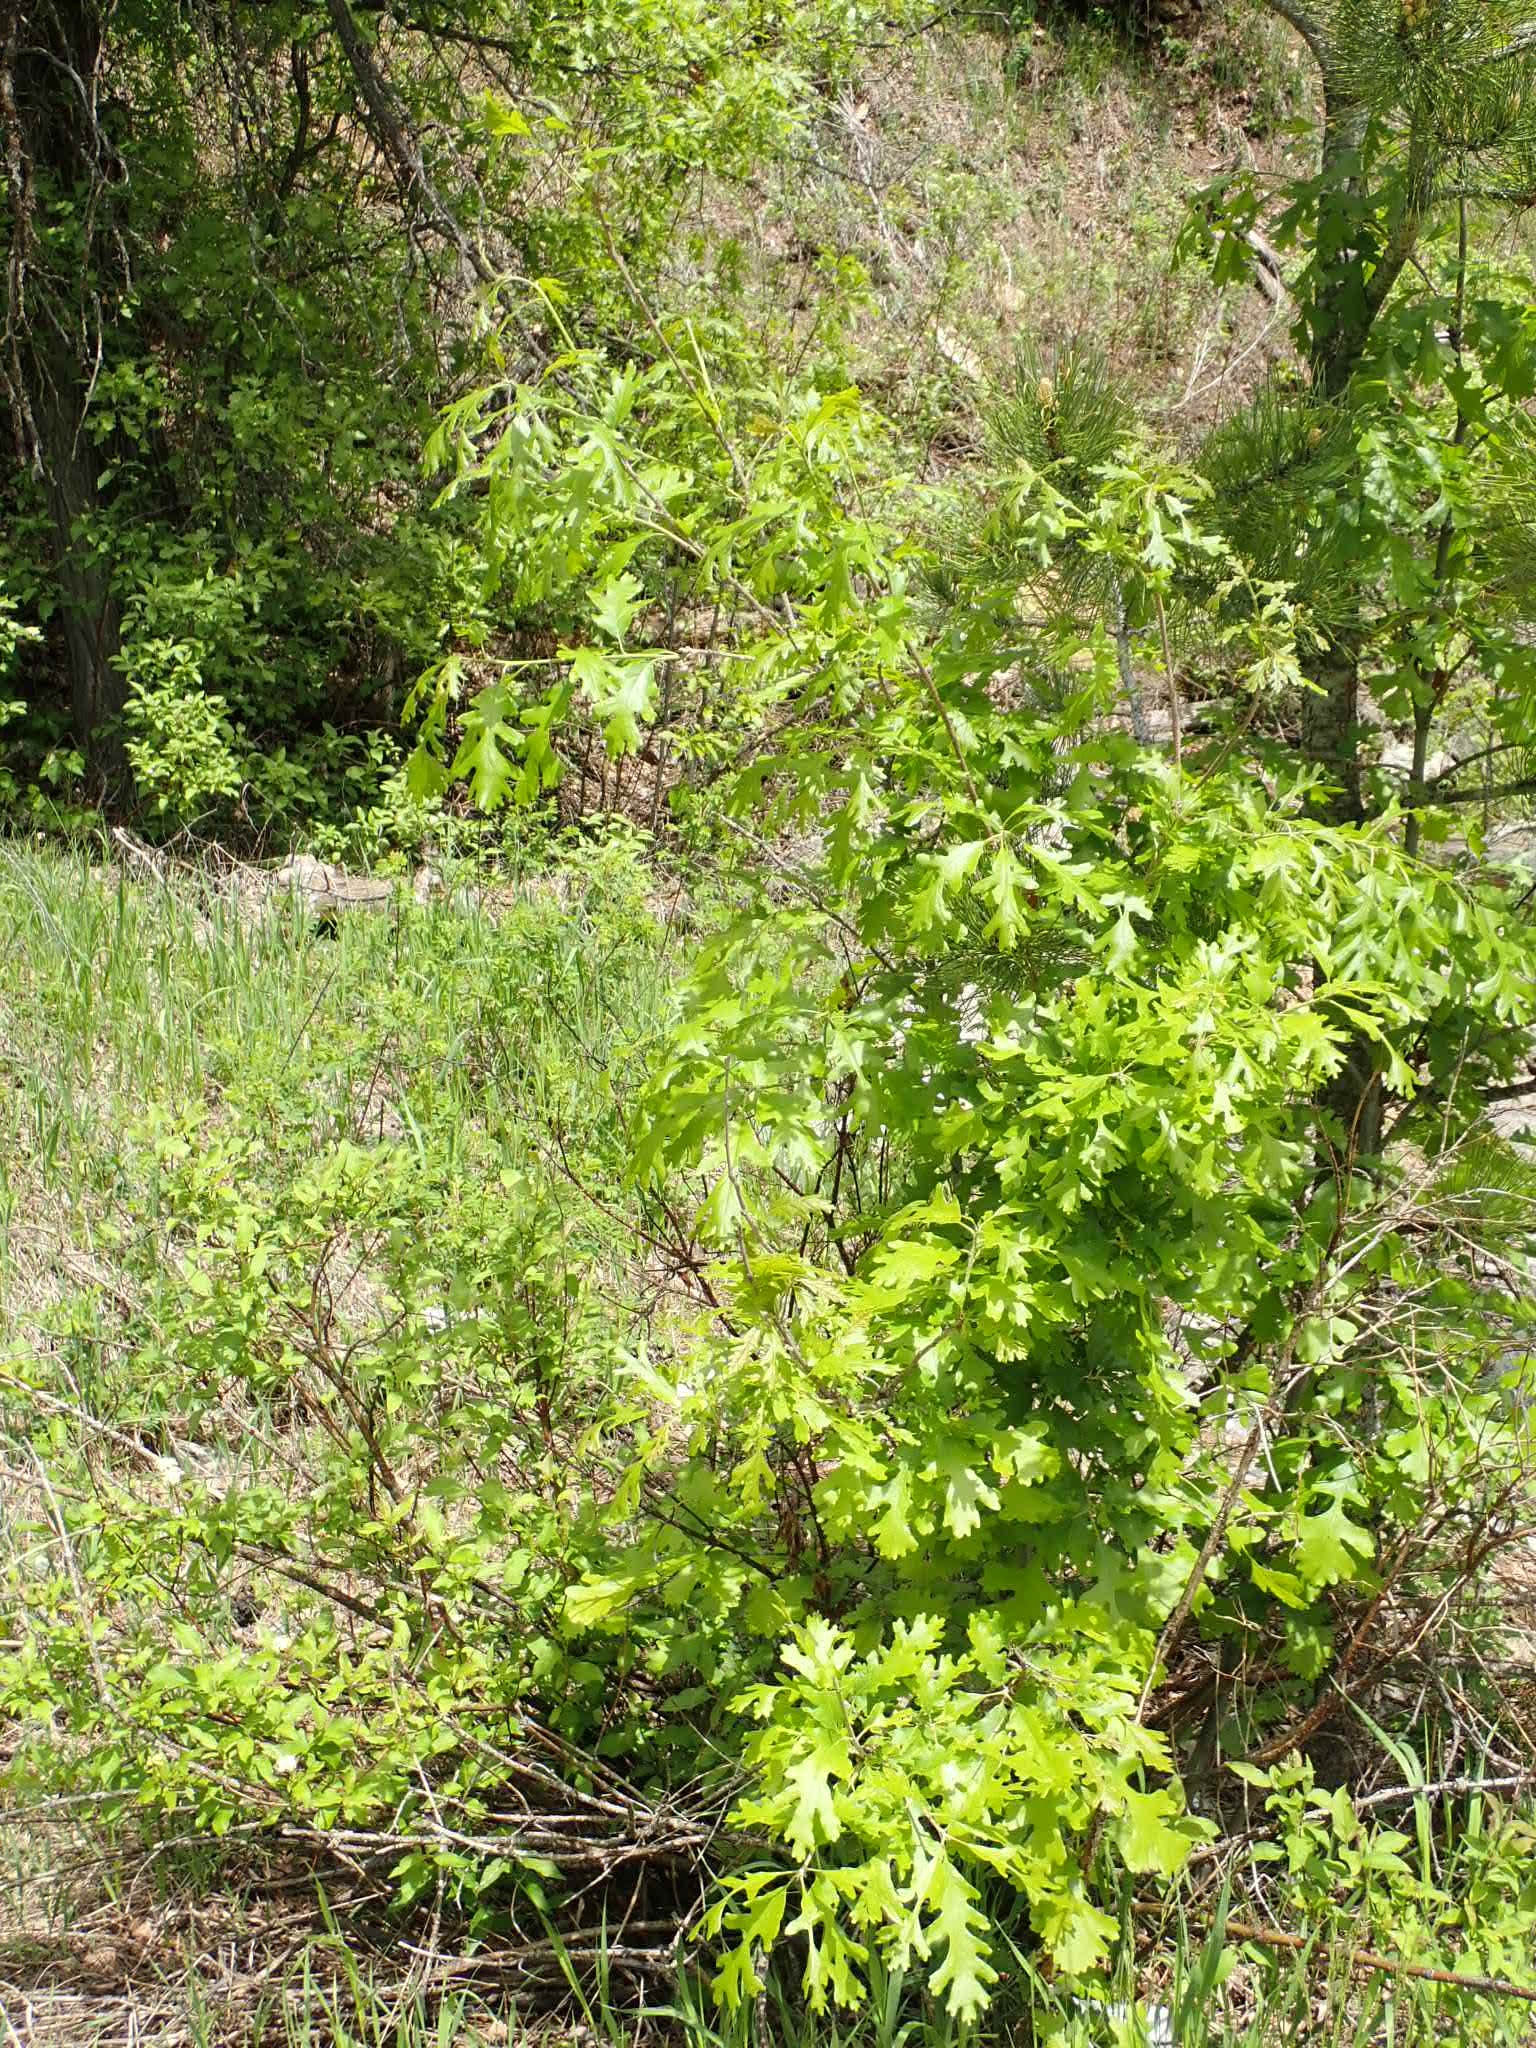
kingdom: Plantae
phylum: Tracheophyta
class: Magnoliopsida
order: Fagales
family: Fagaceae
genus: Quercus
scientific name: Quercus macrocarpa
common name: Bur oak
